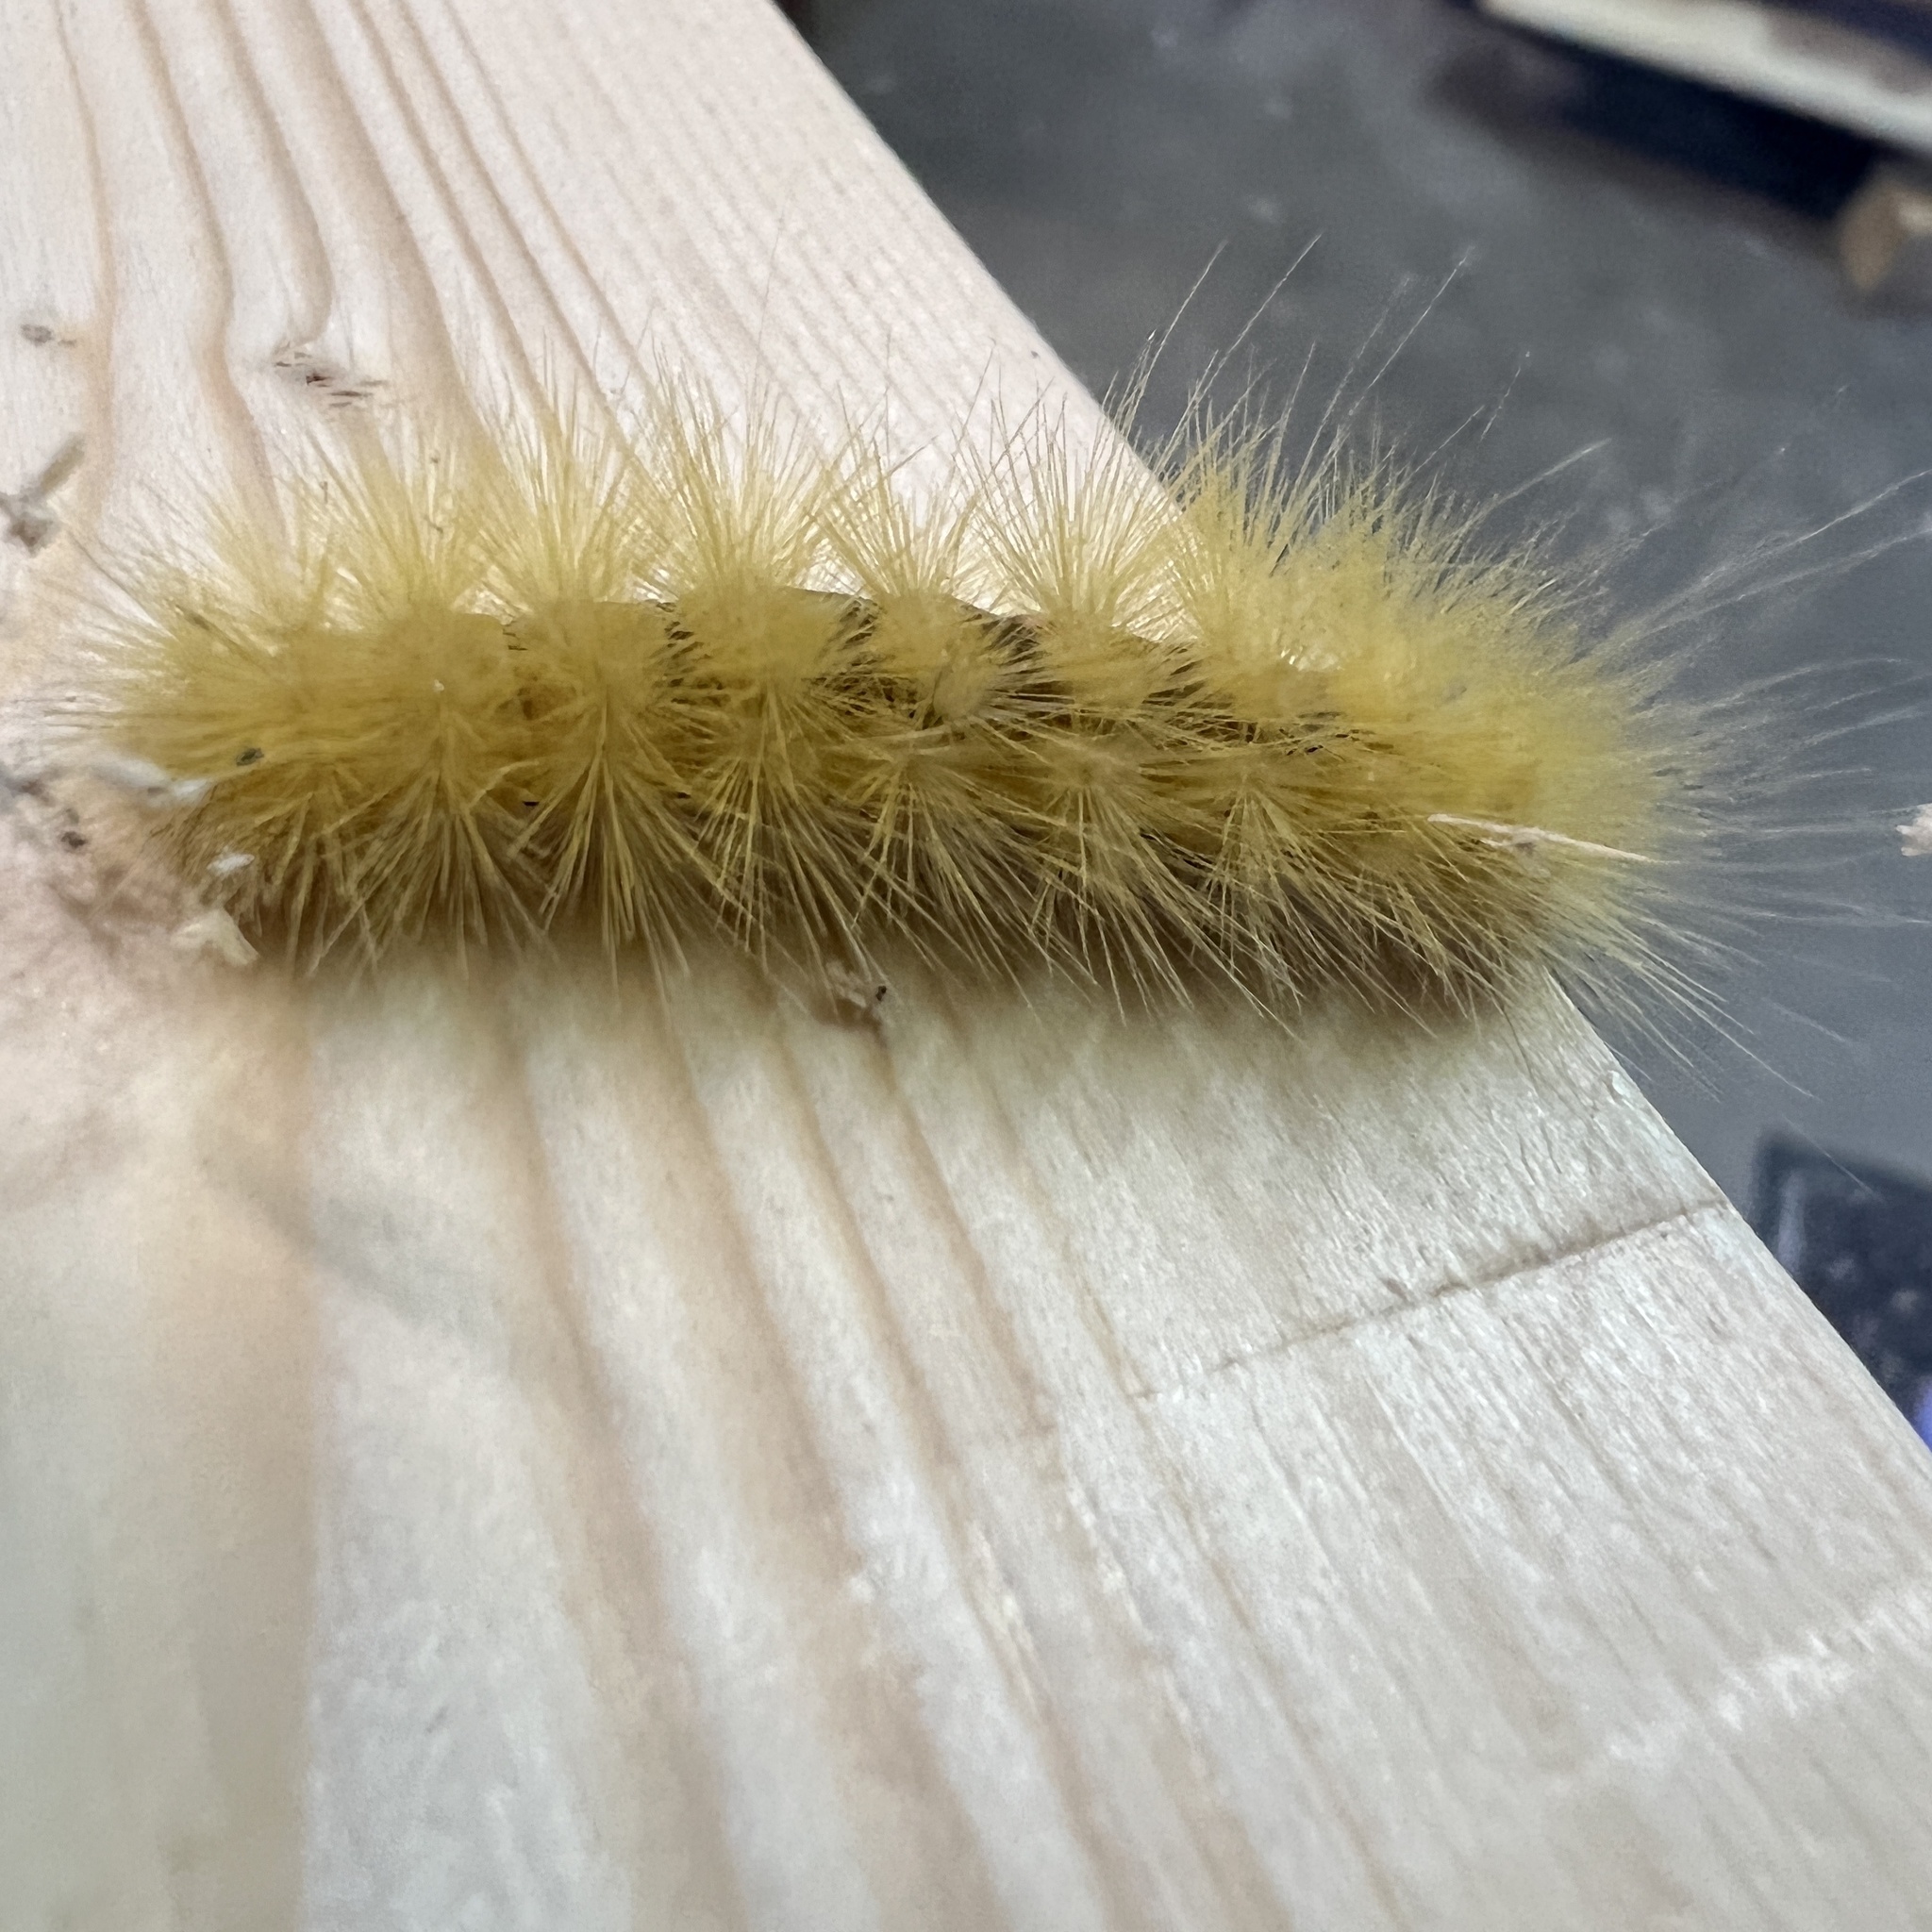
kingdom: Animalia
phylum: Arthropoda
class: Insecta
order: Lepidoptera
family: Erebidae
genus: Spilosoma
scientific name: Spilosoma virginica
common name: Virginia tiger moth
